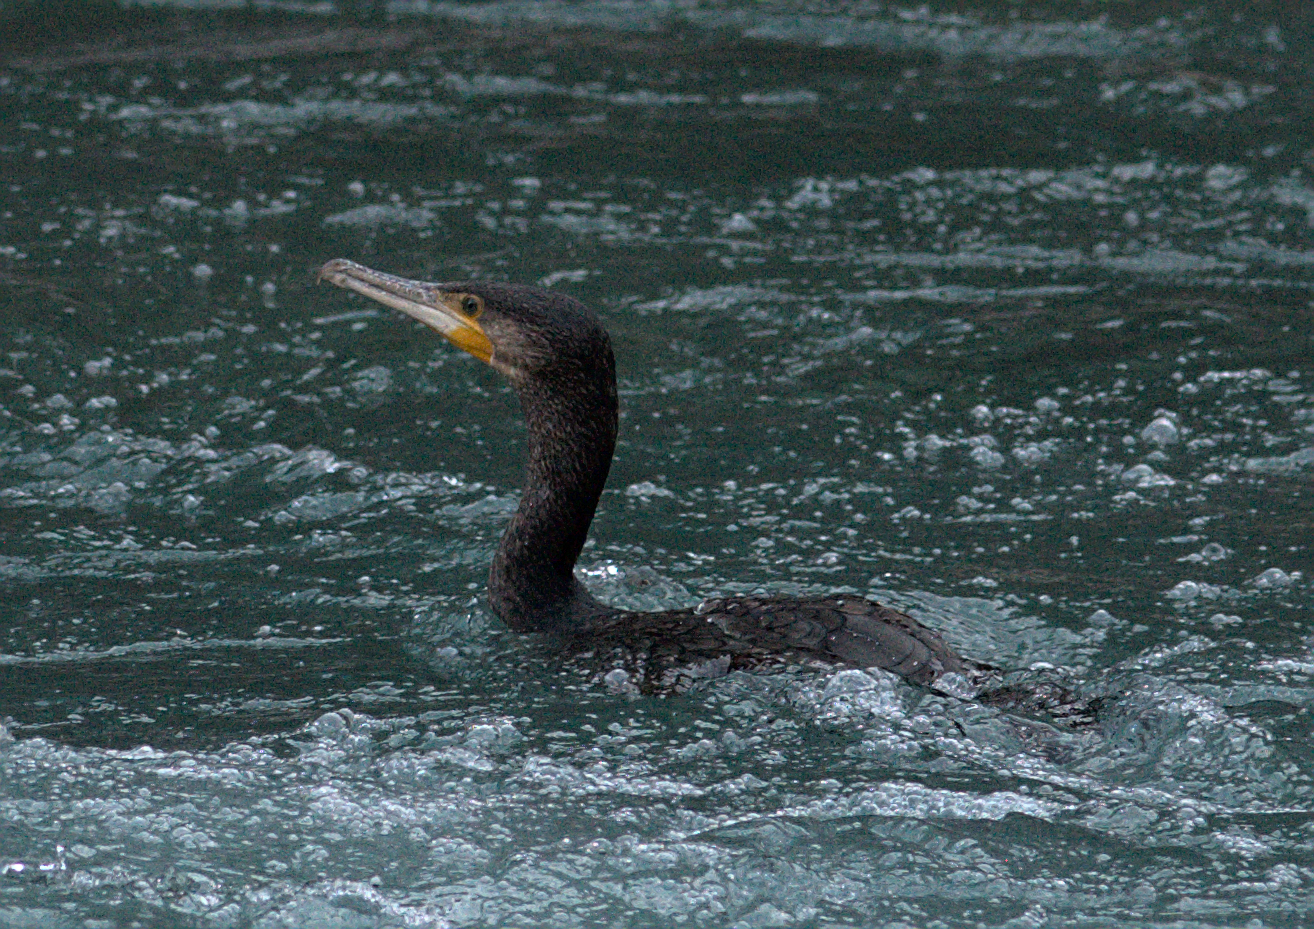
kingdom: Animalia
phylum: Chordata
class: Aves
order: Suliformes
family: Phalacrocoracidae
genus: Phalacrocorax
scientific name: Phalacrocorax carbo
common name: Great cormorant
